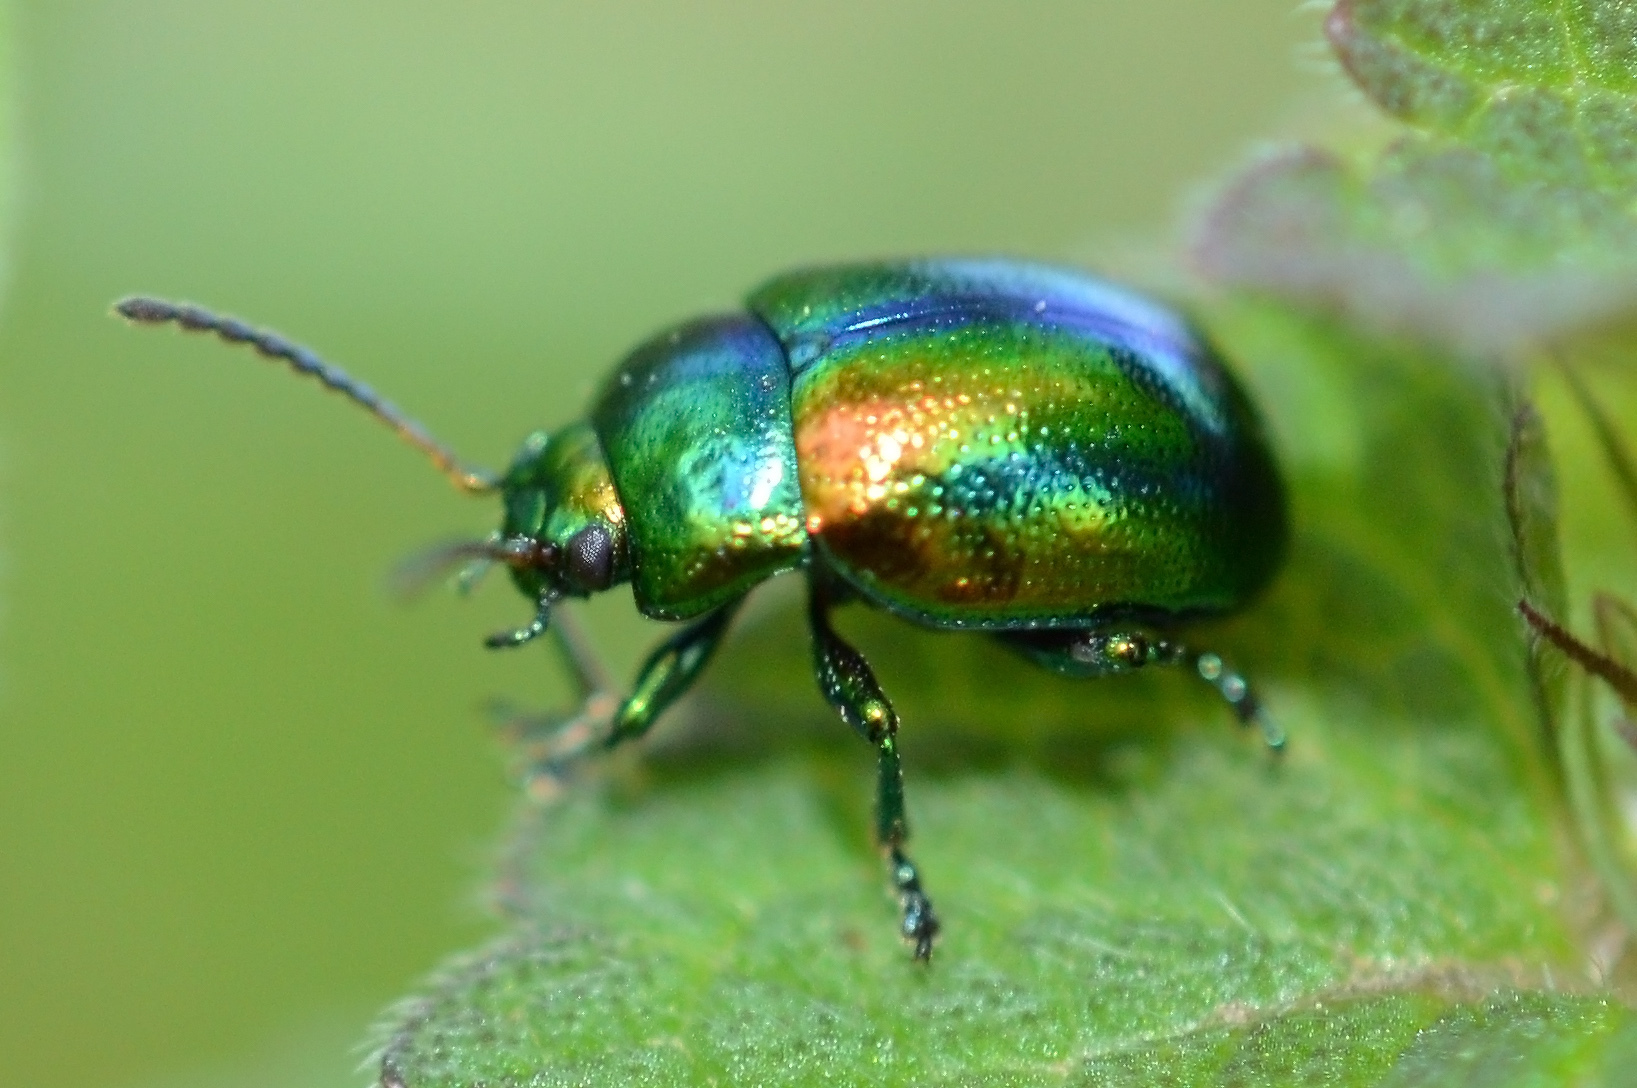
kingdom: Animalia
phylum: Arthropoda
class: Insecta
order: Coleoptera
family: Chrysomelidae
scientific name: Chrysomelidae
